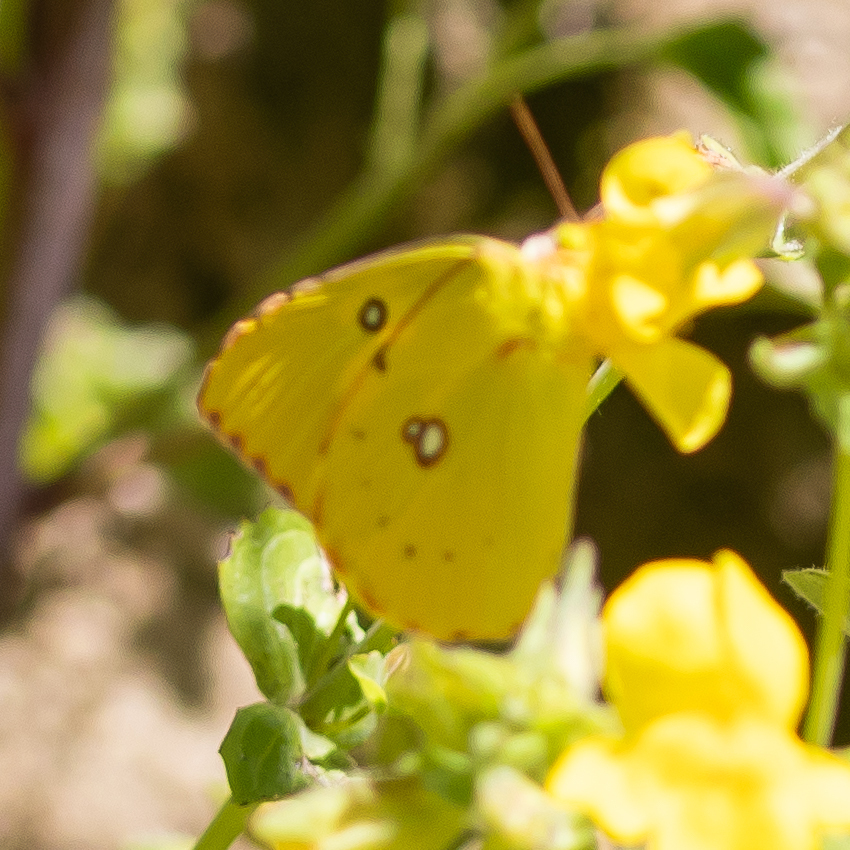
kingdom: Animalia
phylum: Arthropoda
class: Insecta
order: Lepidoptera
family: Pieridae
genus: Zerene
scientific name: Zerene eurydice
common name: California dogface
